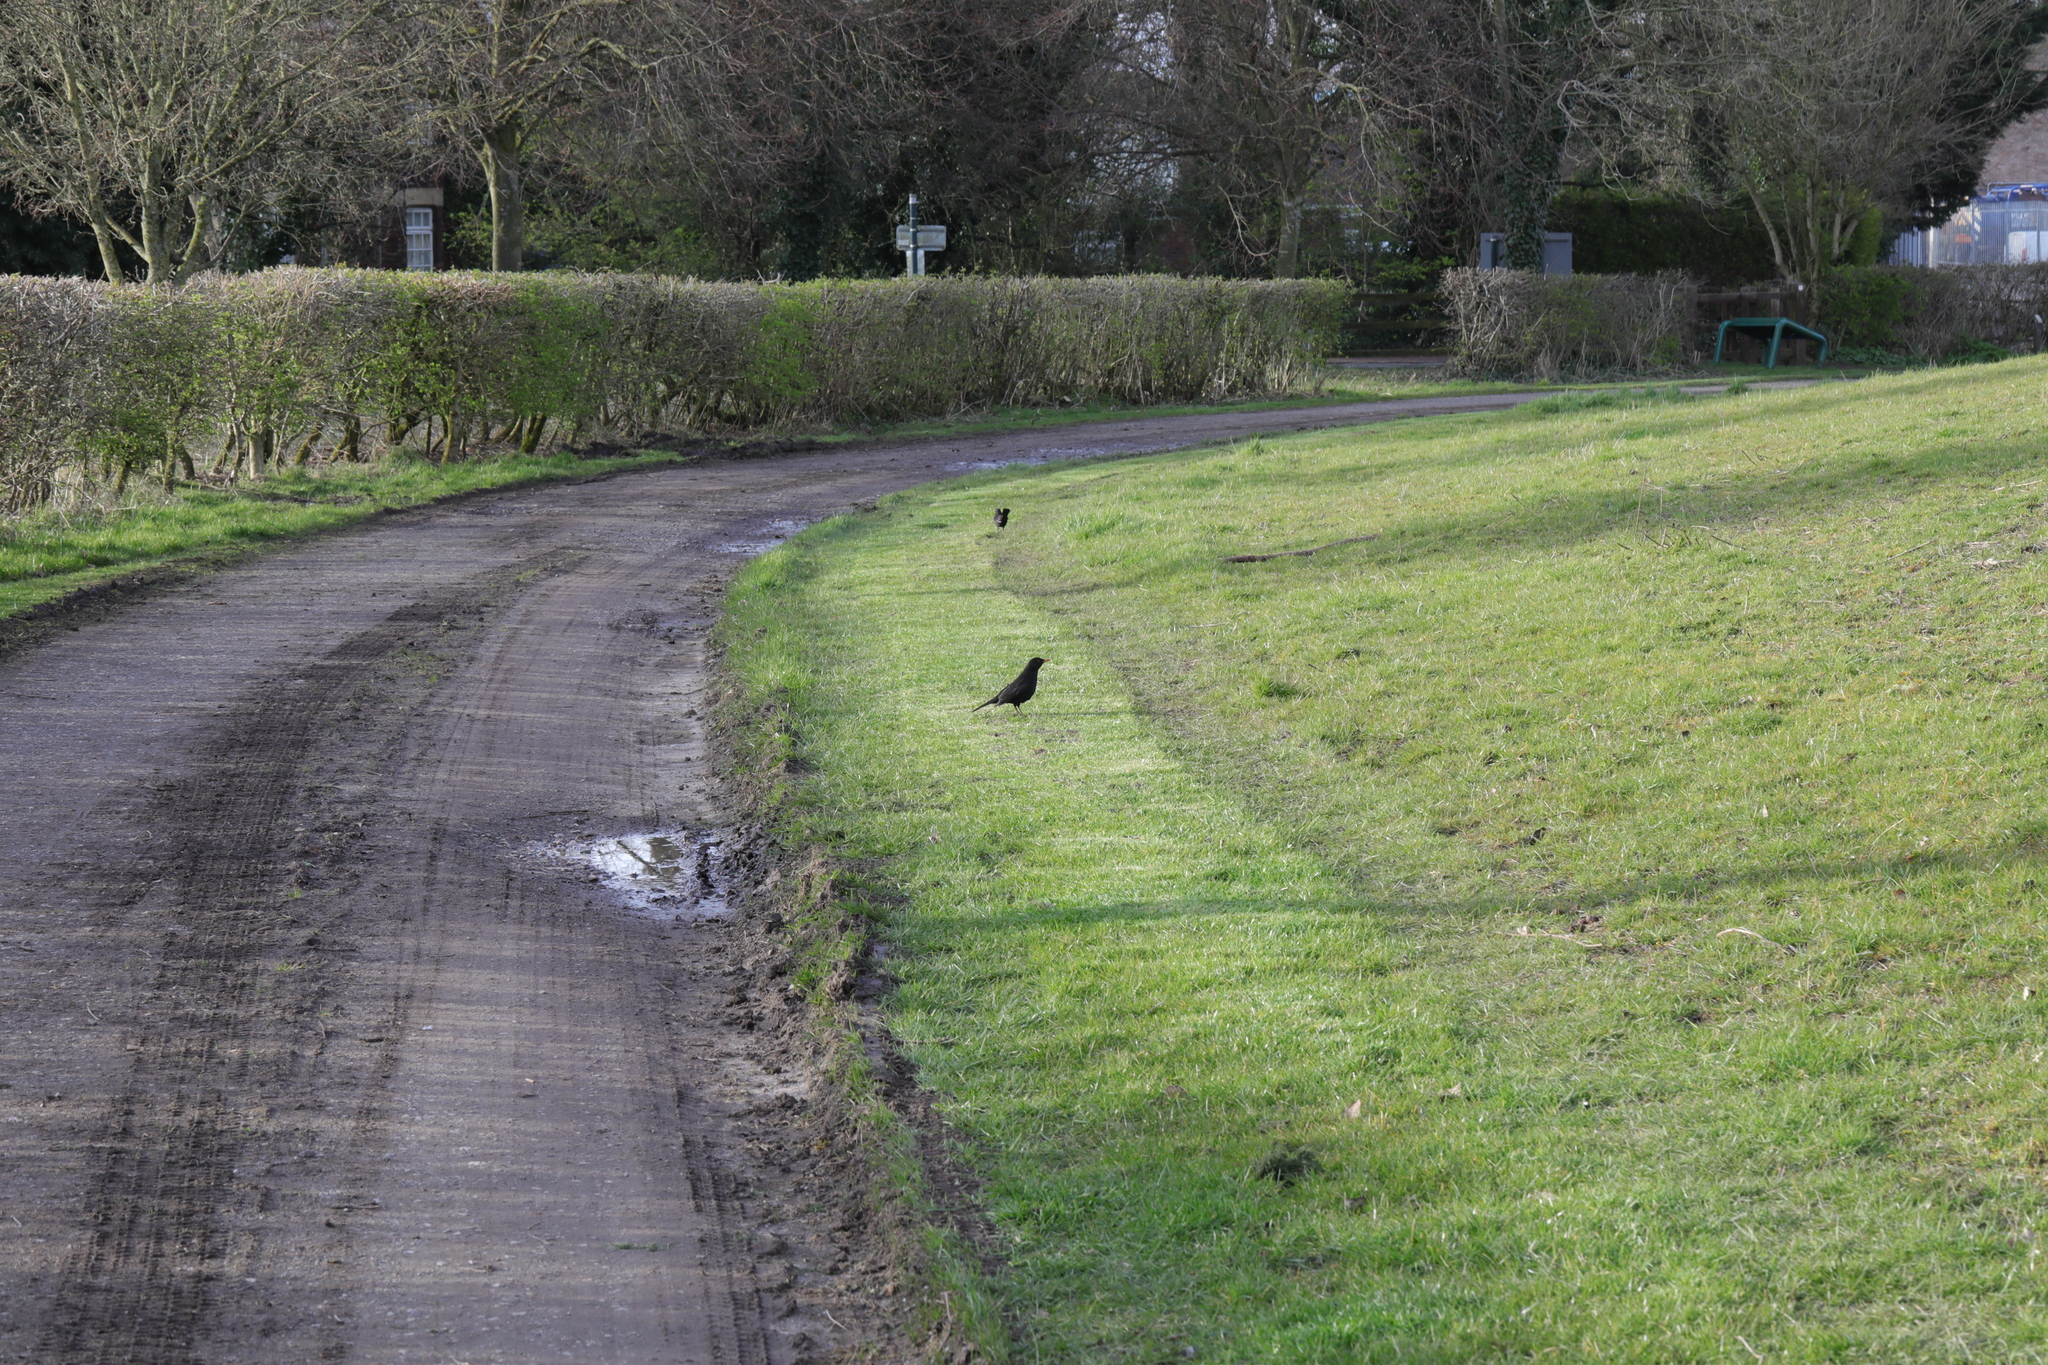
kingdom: Animalia
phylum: Chordata
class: Aves
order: Passeriformes
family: Turdidae
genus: Turdus
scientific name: Turdus merula
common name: Common blackbird
